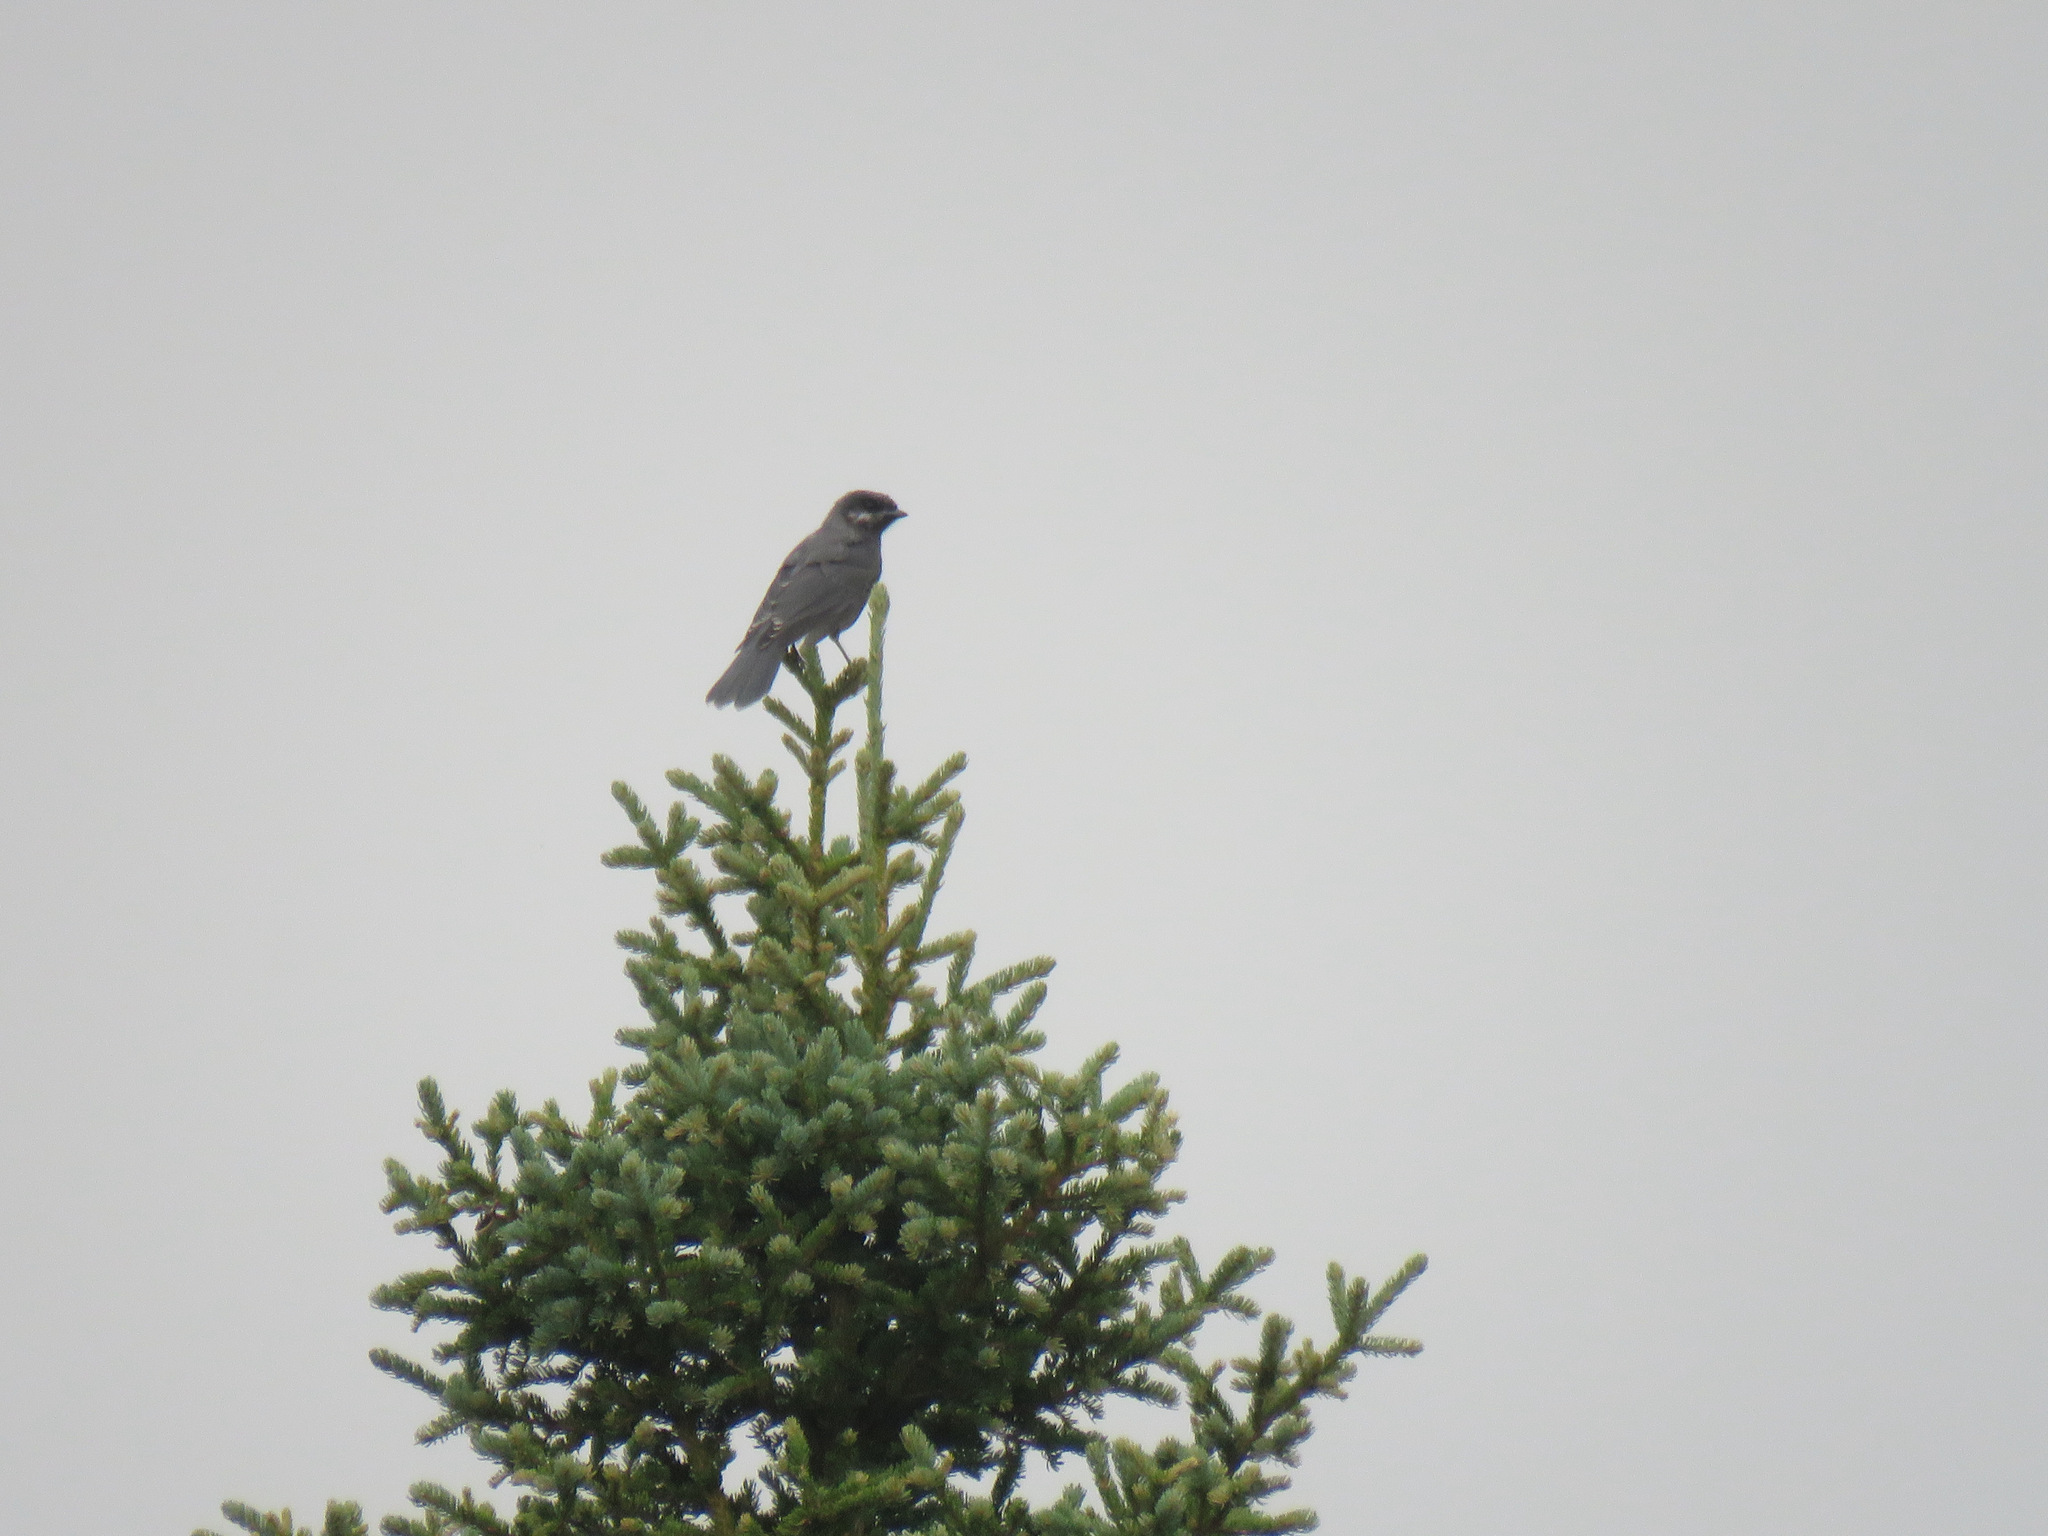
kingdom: Animalia
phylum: Chordata
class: Aves
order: Passeriformes
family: Corvidae
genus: Perisoreus
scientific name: Perisoreus canadensis
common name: Gray jay
